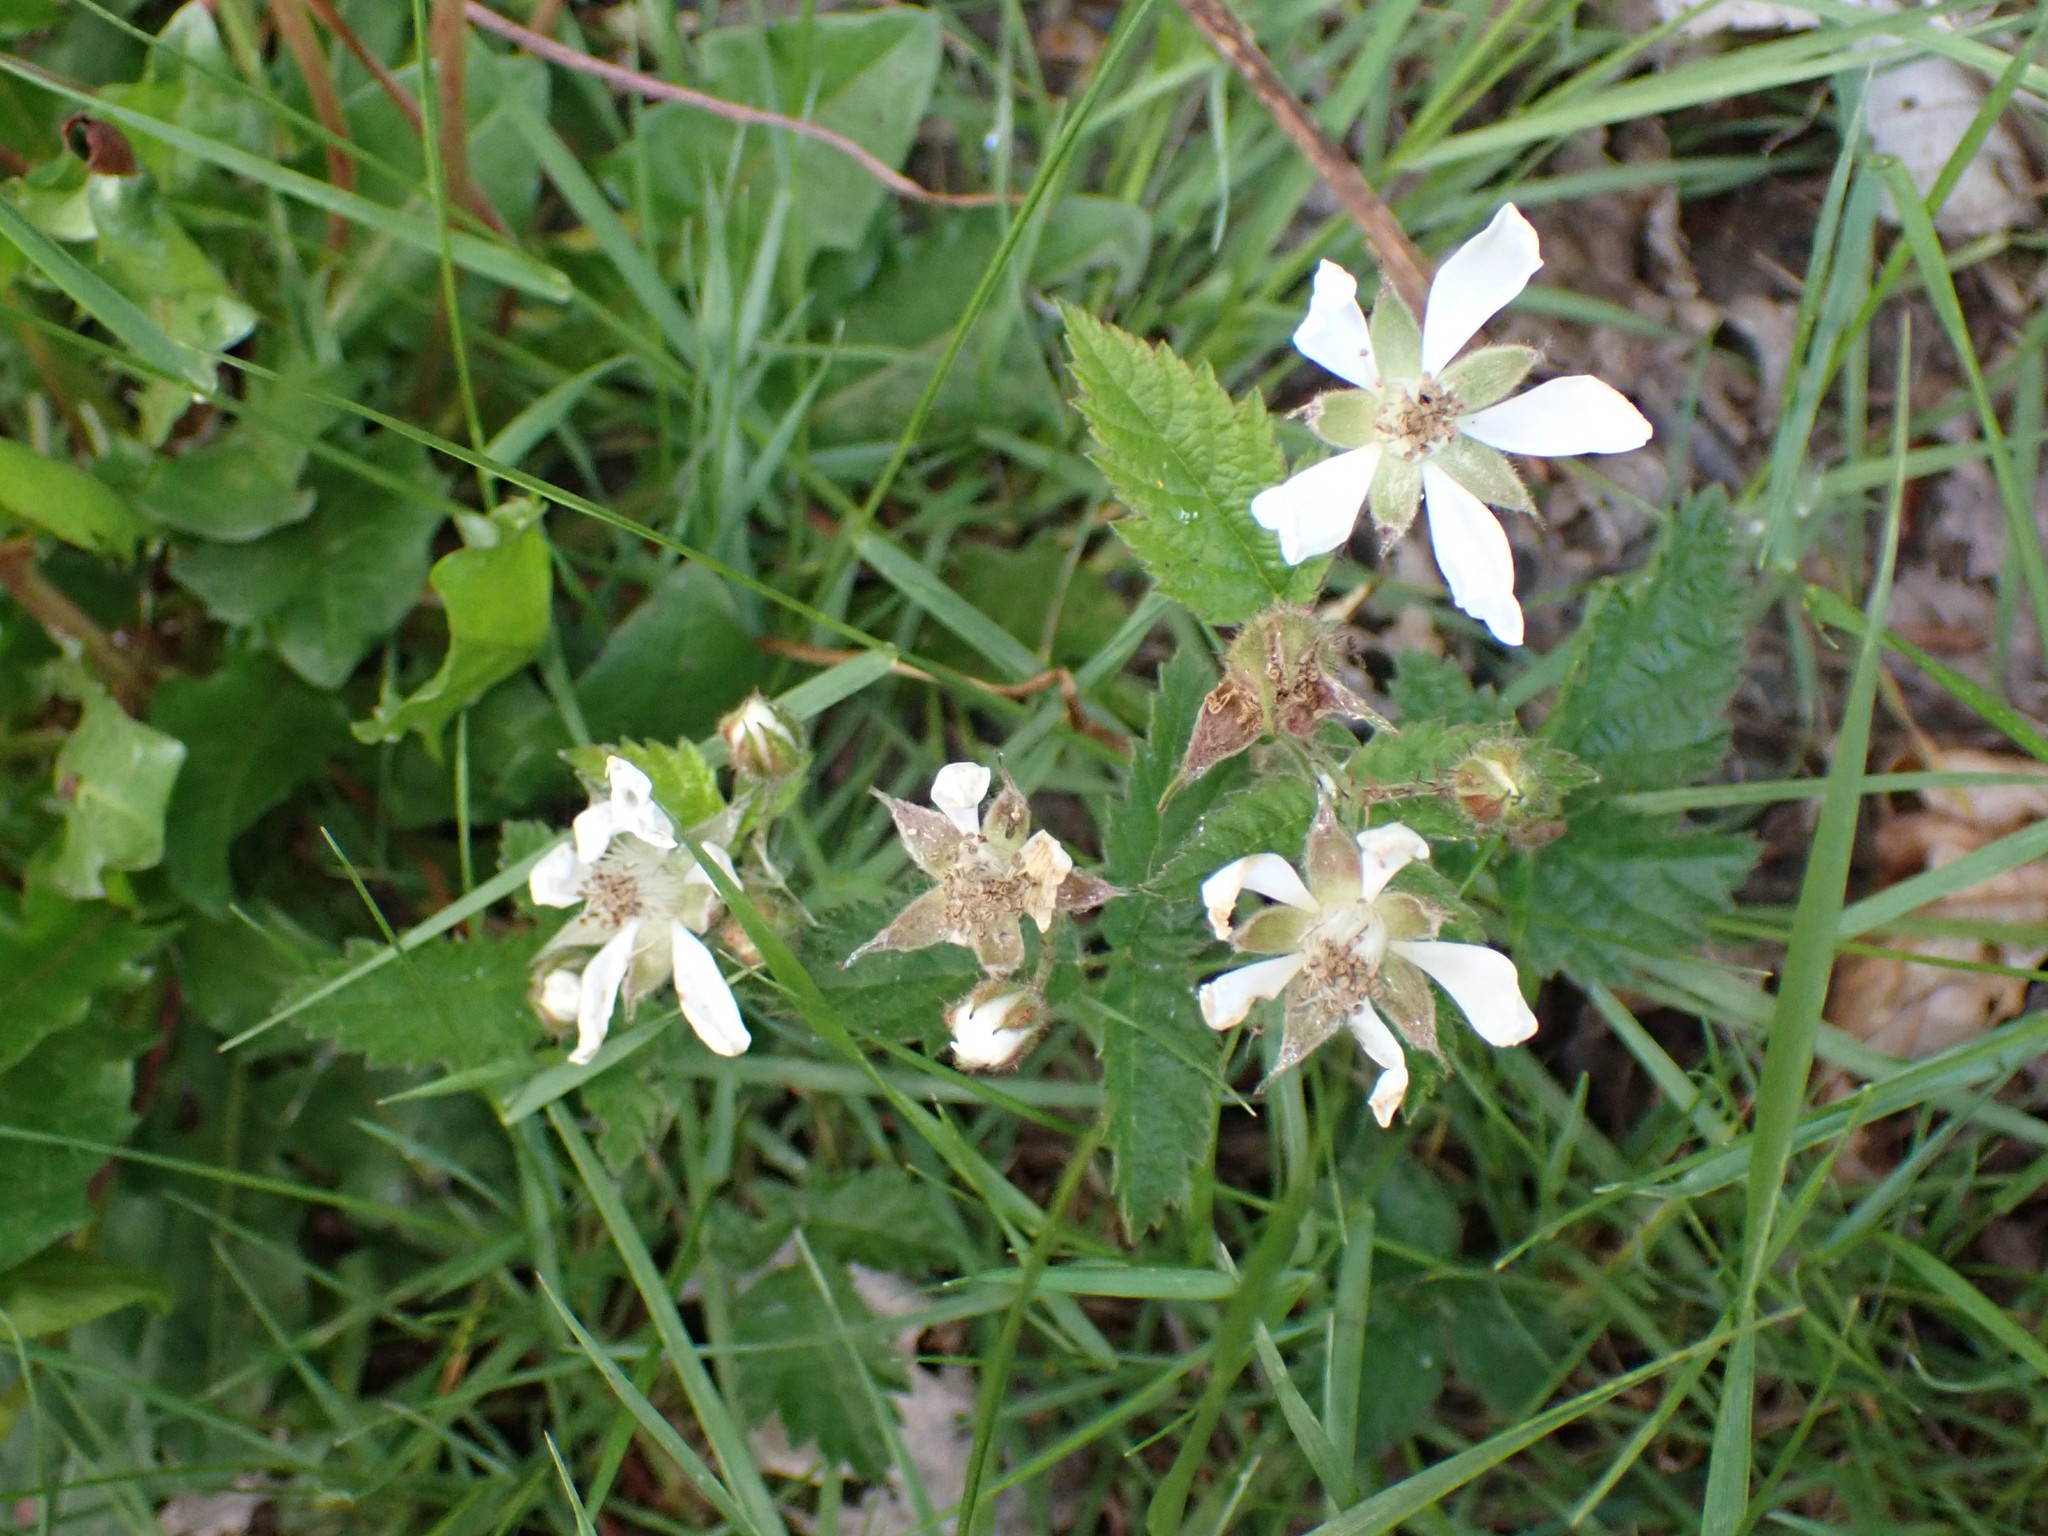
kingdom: Plantae
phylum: Tracheophyta
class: Magnoliopsida
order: Rosales
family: Rosaceae
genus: Rubus
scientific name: Rubus ursinus
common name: Pacific blackberry
